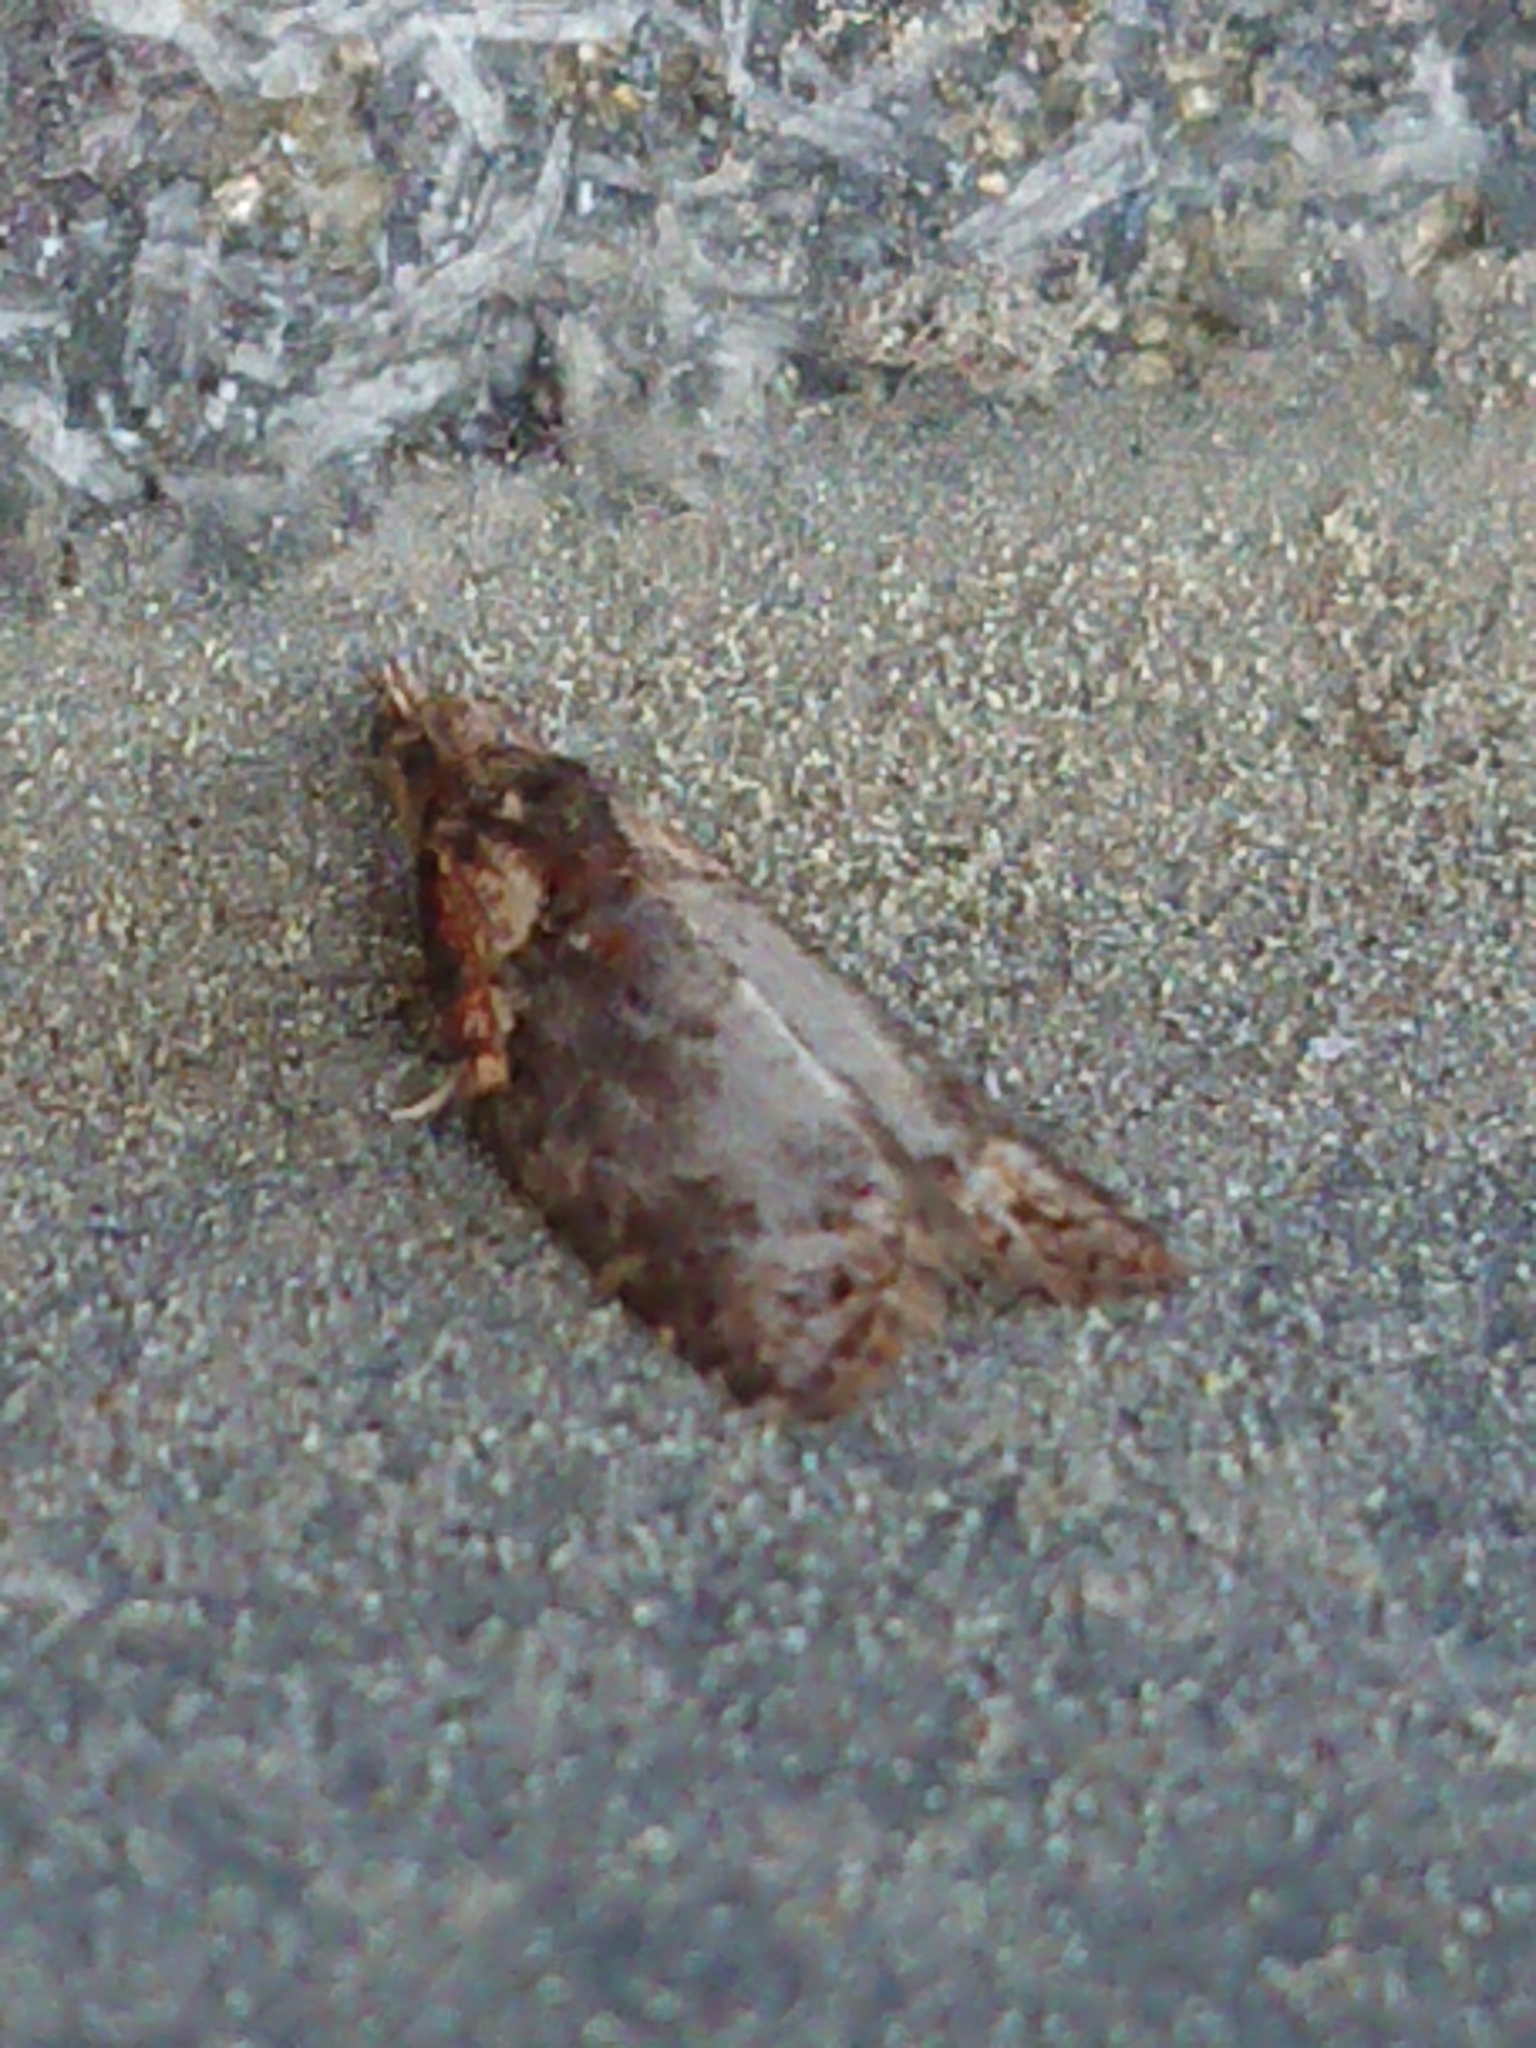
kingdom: Animalia
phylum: Arthropoda
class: Insecta
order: Lepidoptera
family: Tortricidae
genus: Capua
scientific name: Capua intractana
